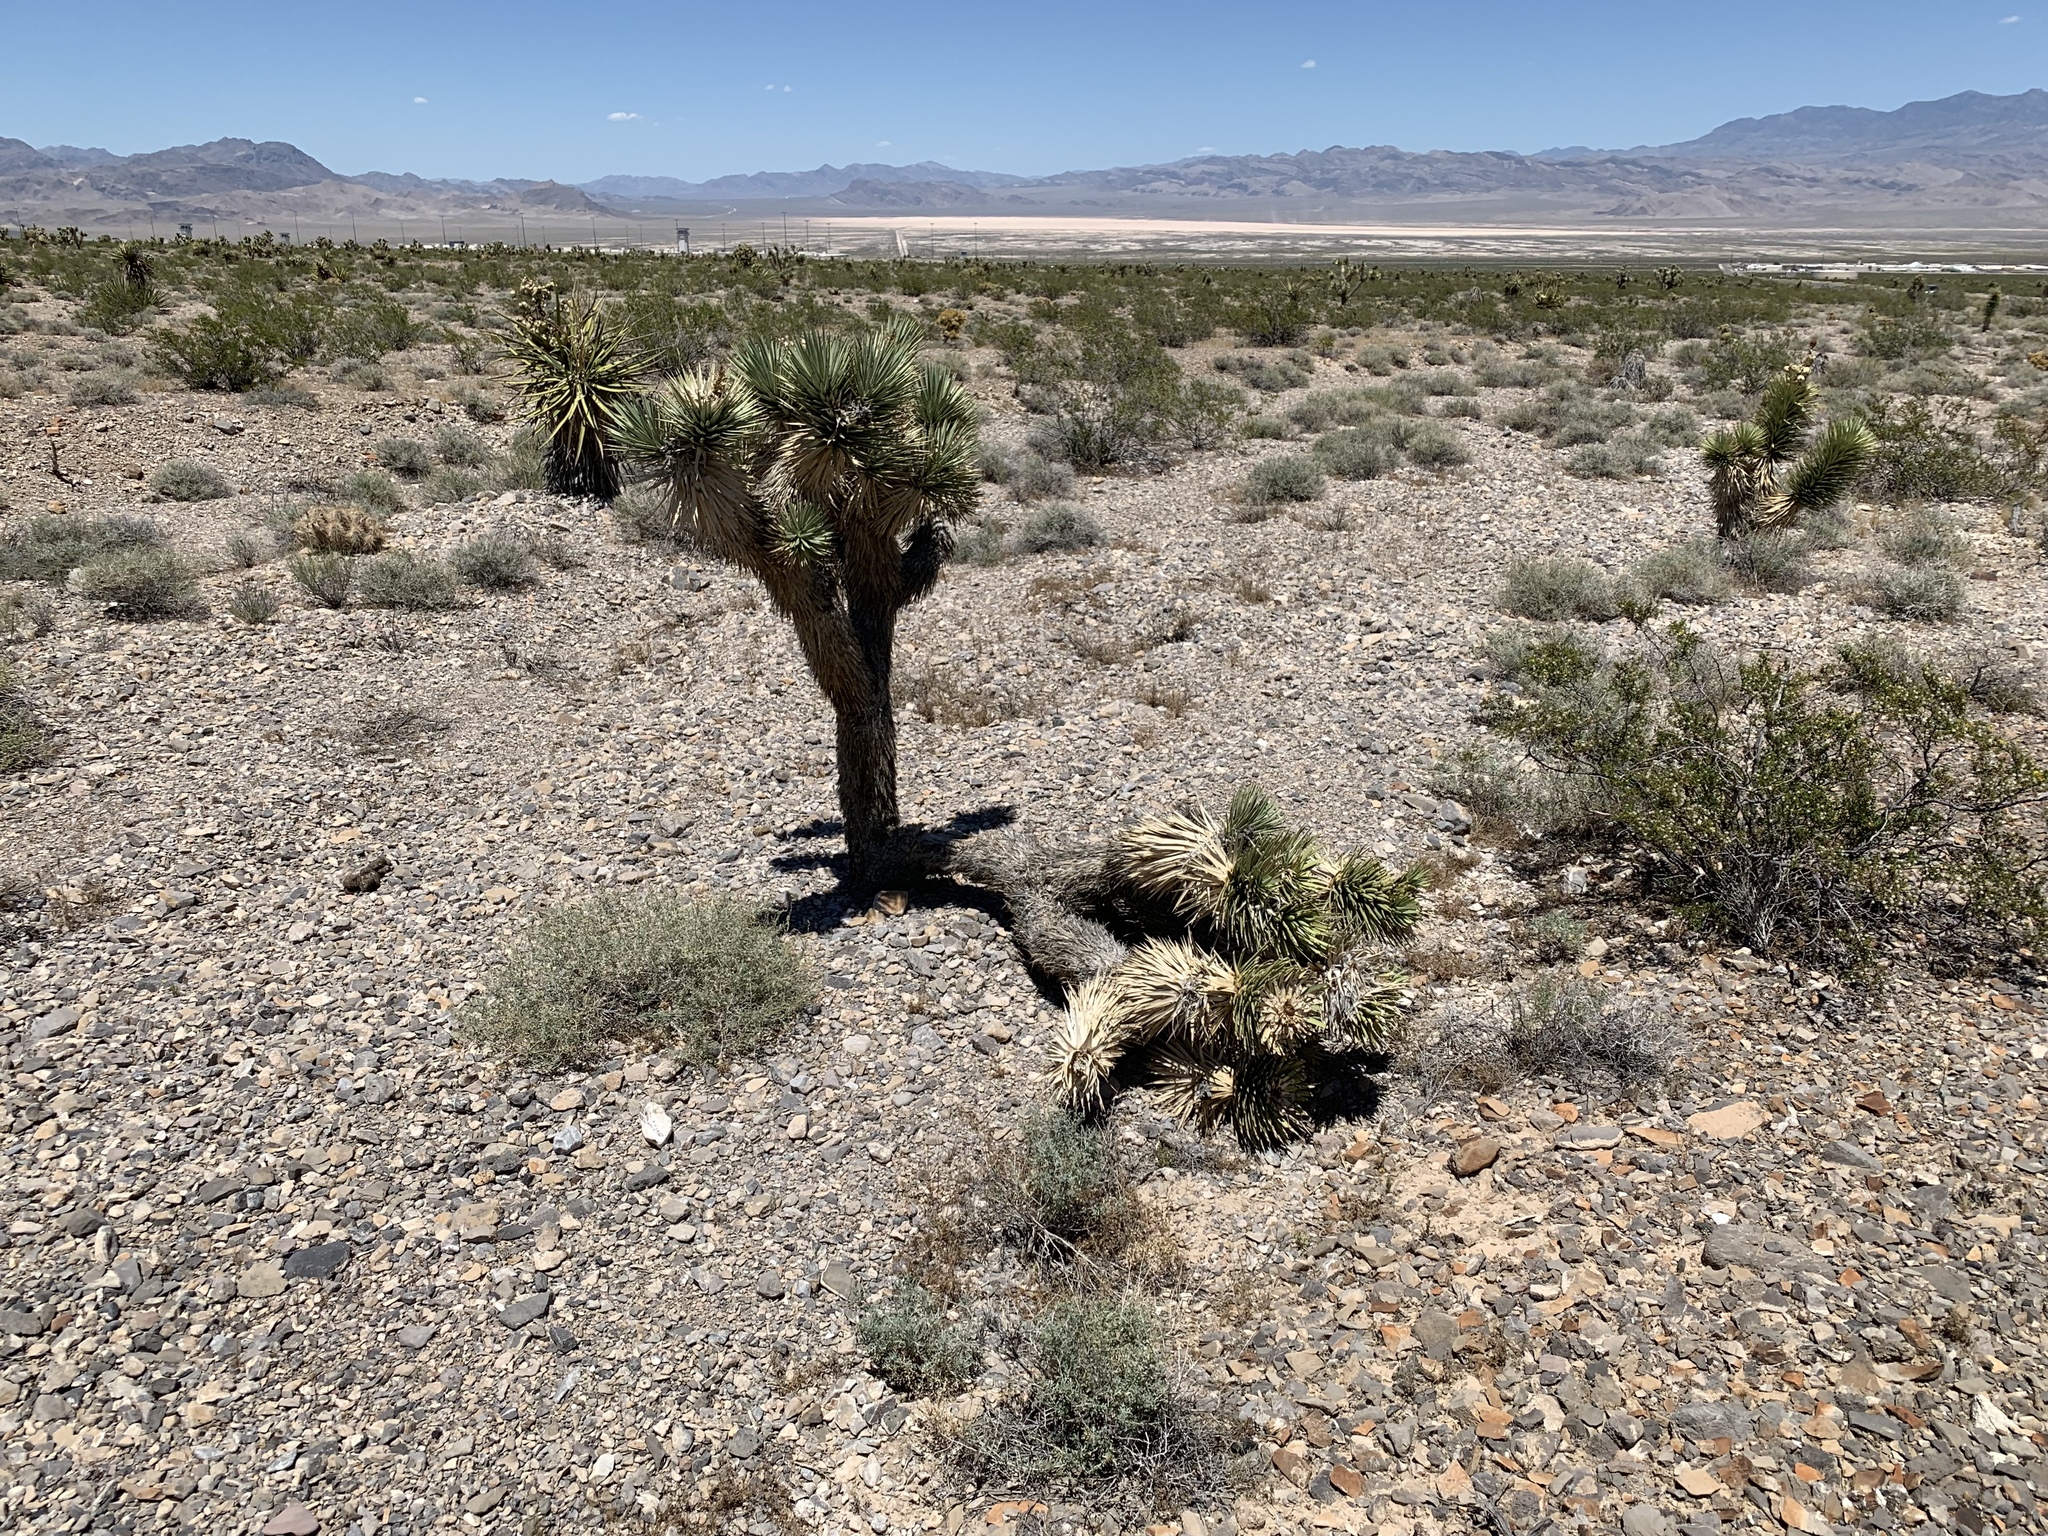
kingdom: Plantae
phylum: Tracheophyta
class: Liliopsida
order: Asparagales
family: Asparagaceae
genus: Yucca
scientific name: Yucca brevifolia
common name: Joshua tree
